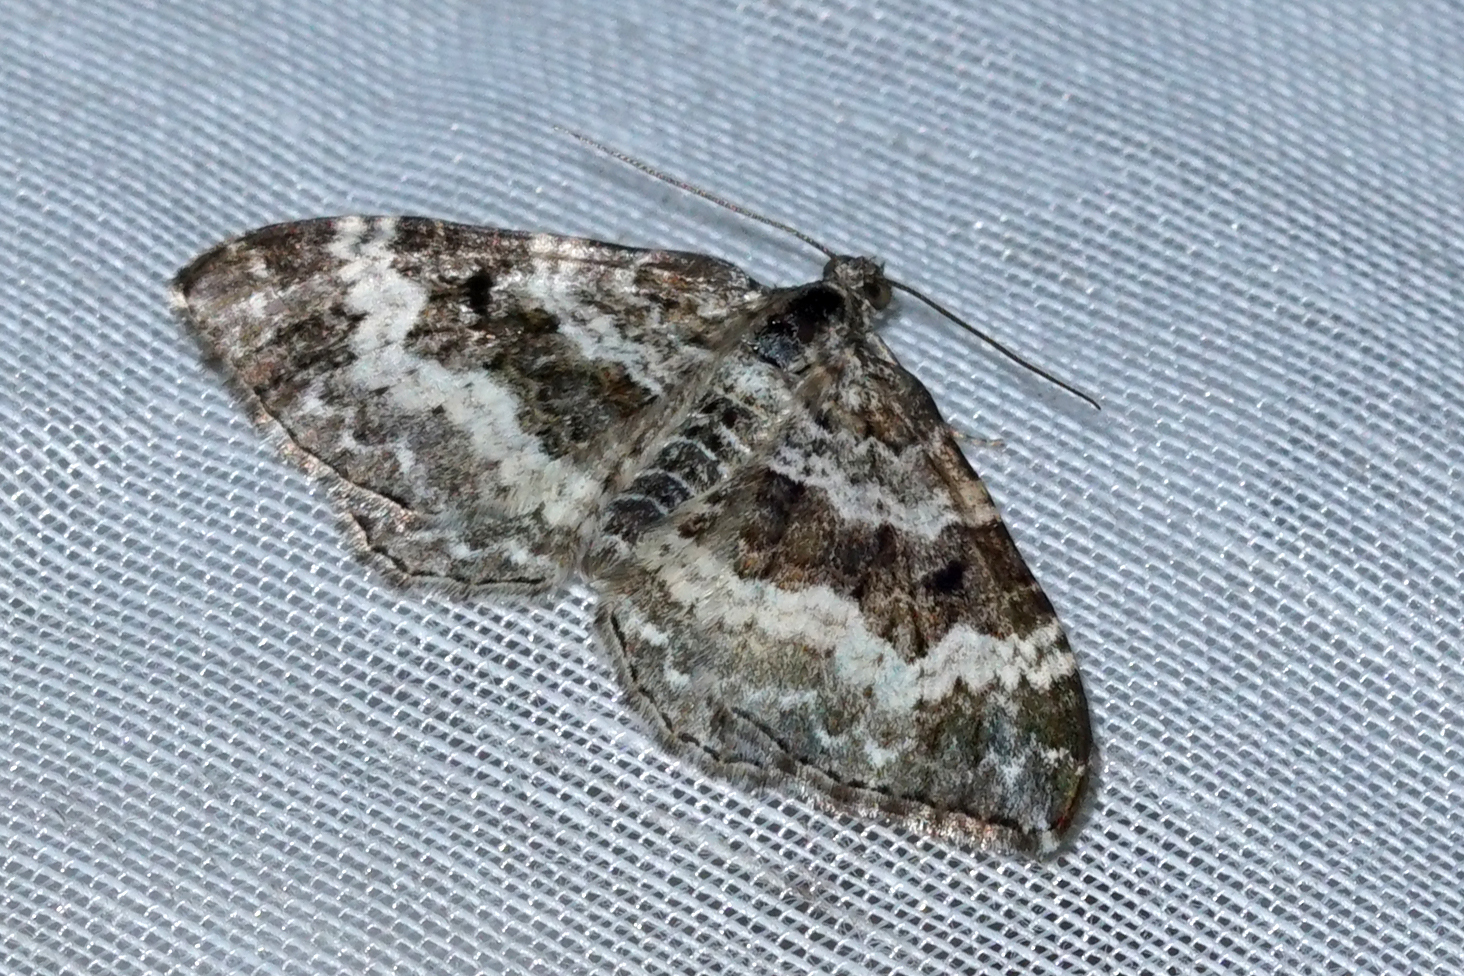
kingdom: Animalia
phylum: Arthropoda
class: Insecta
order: Lepidoptera
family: Geometridae
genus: Epirrhoe
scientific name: Epirrhoe alternata
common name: Common carpet
